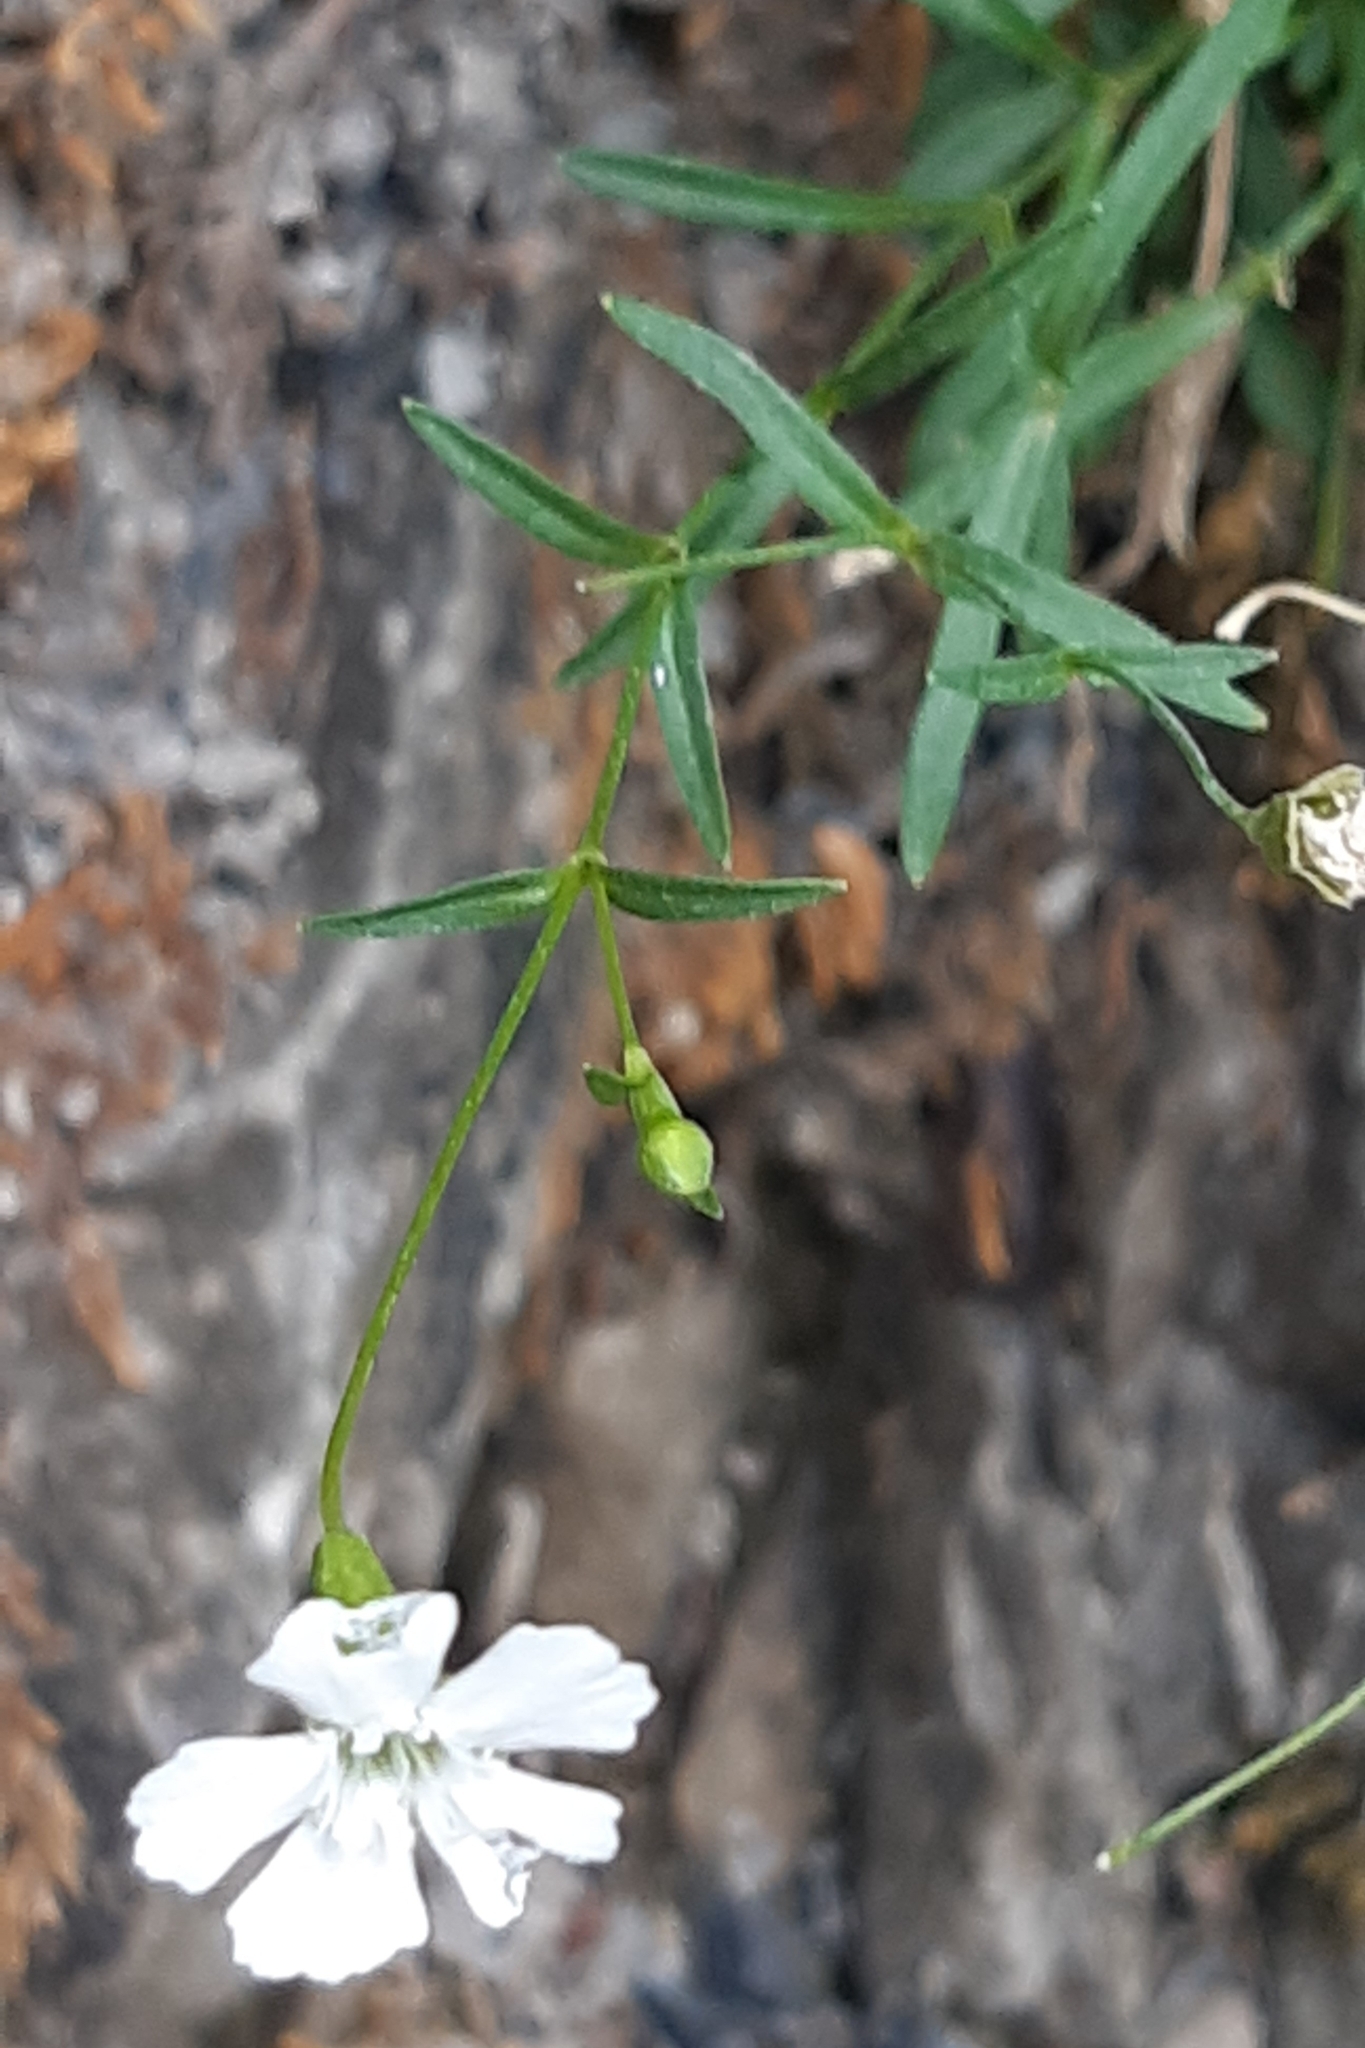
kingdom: Plantae
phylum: Tracheophyta
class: Magnoliopsida
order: Caryophyllales
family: Caryophyllaceae
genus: Heliosperma
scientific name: Heliosperma pusillum
